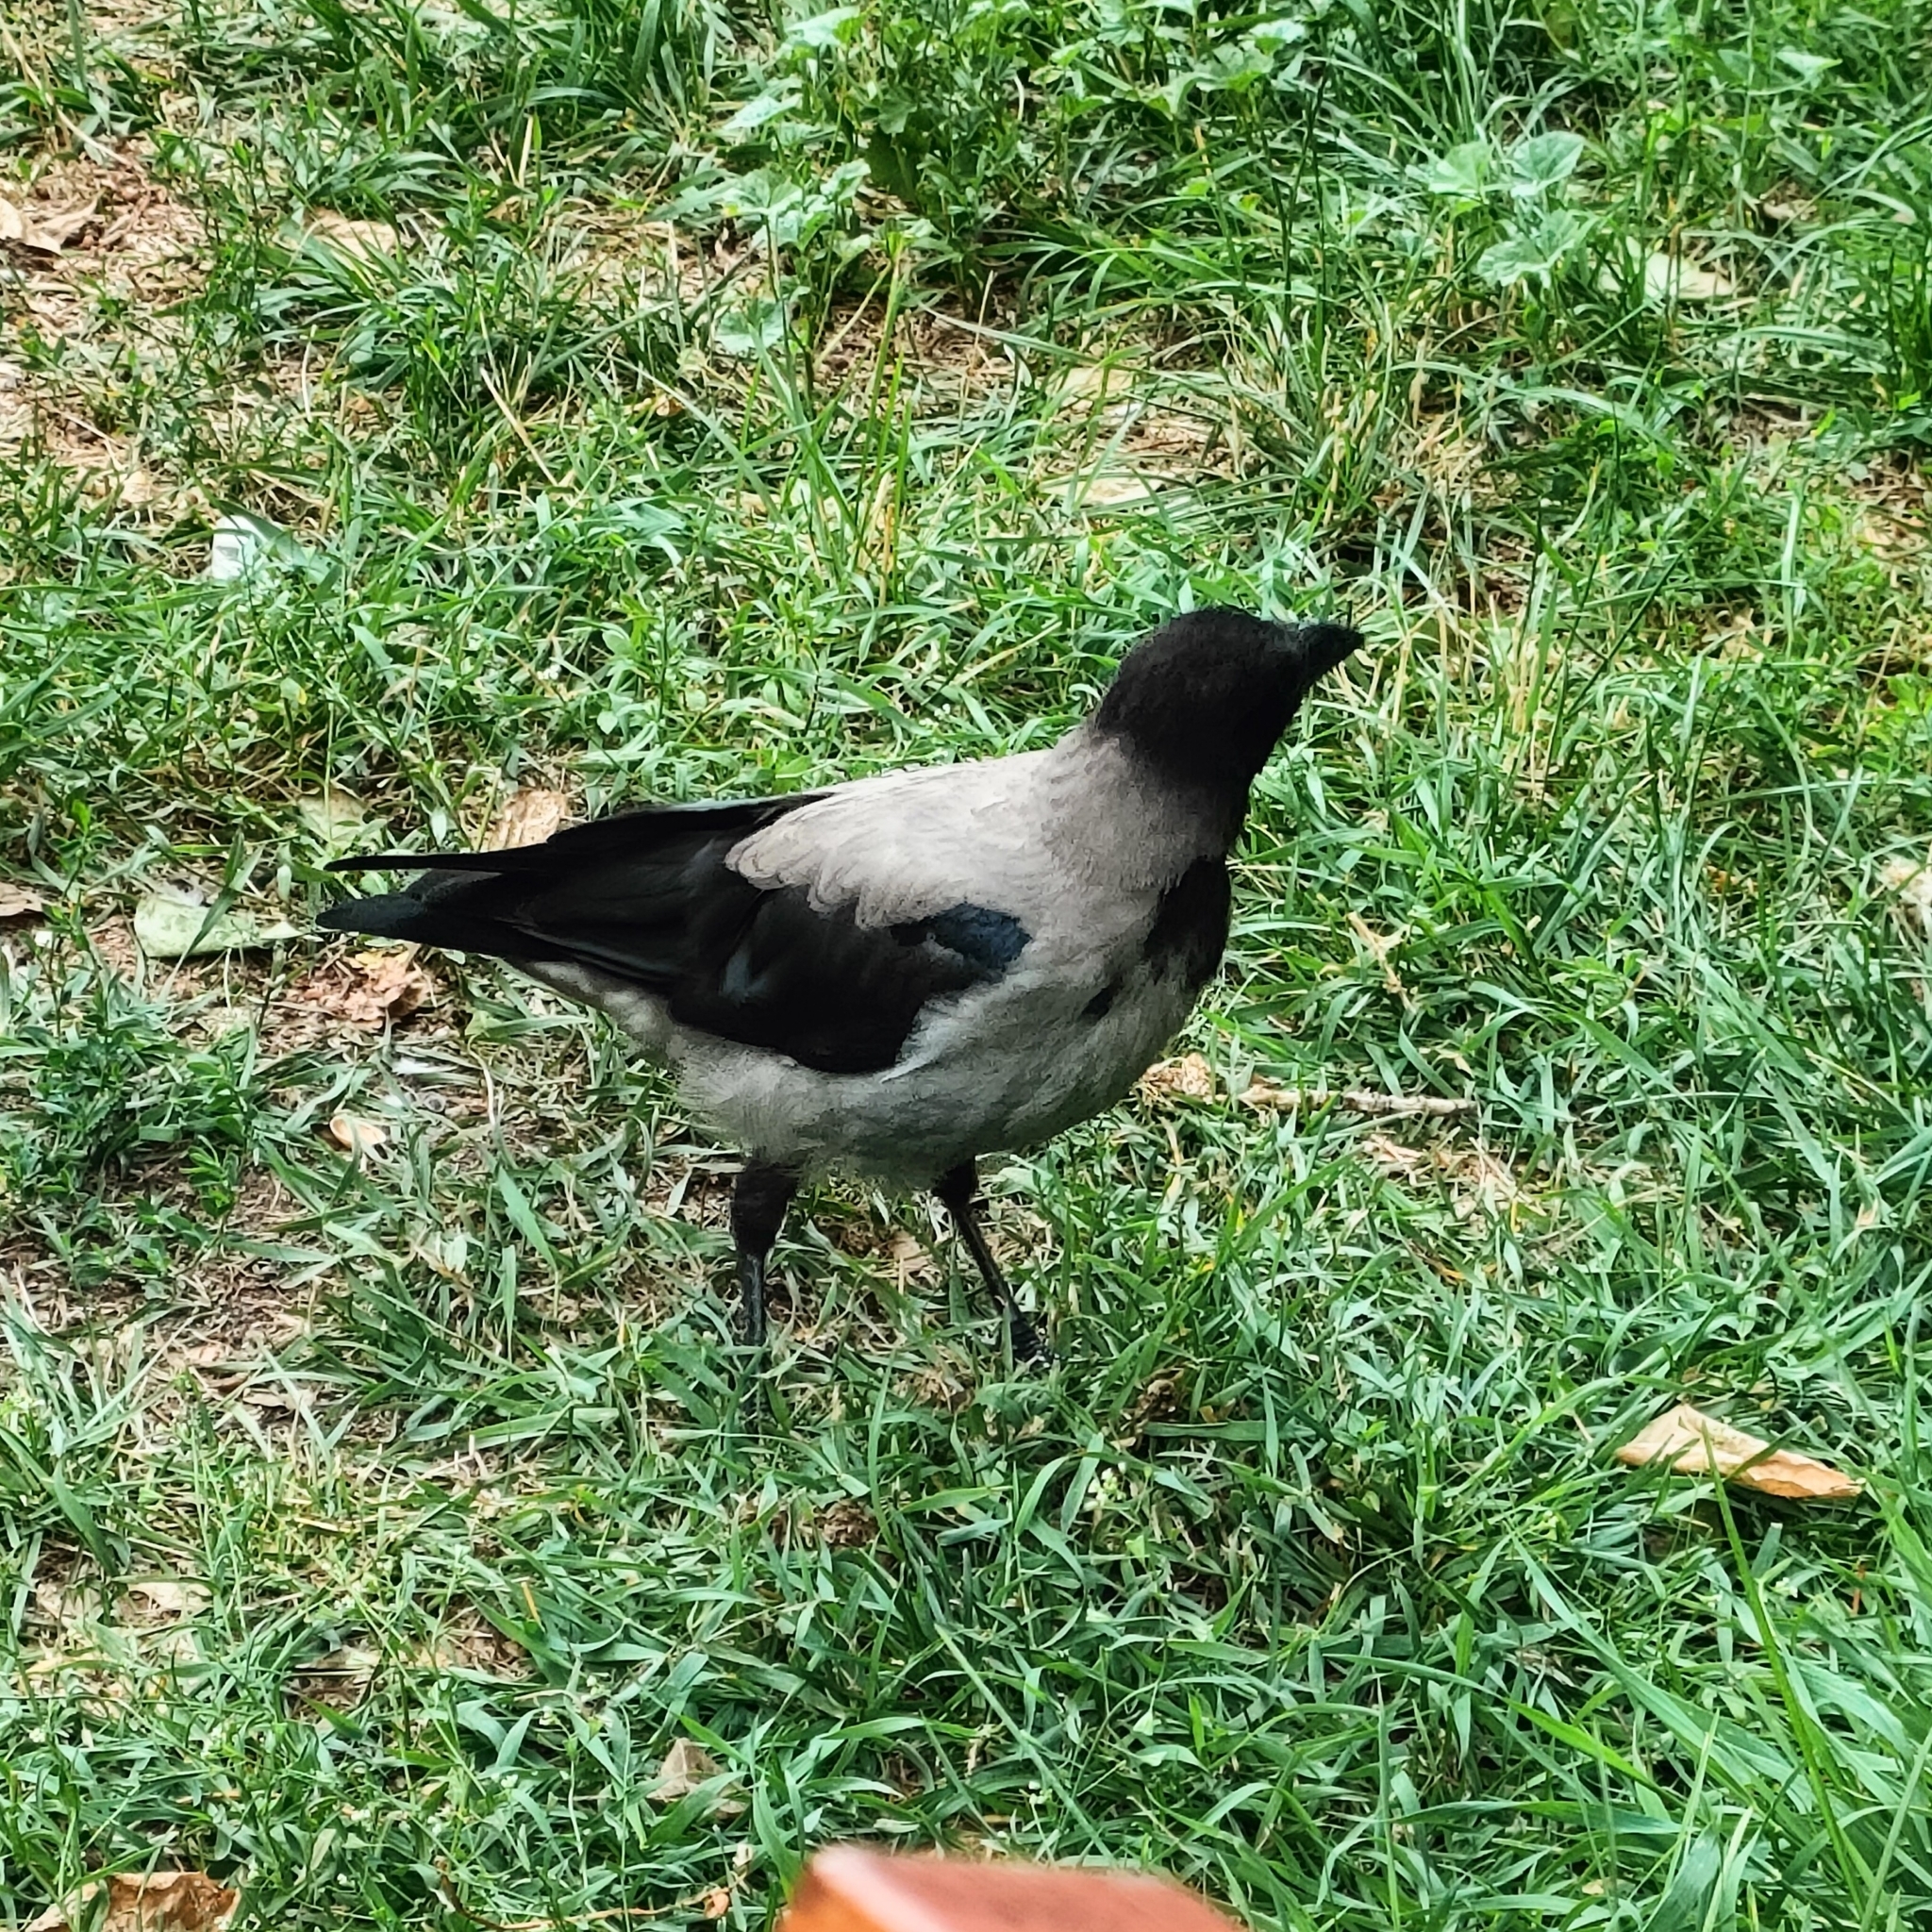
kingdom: Animalia
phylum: Chordata
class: Aves
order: Passeriformes
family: Corvidae
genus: Corvus
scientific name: Corvus cornix
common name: Hooded crow
